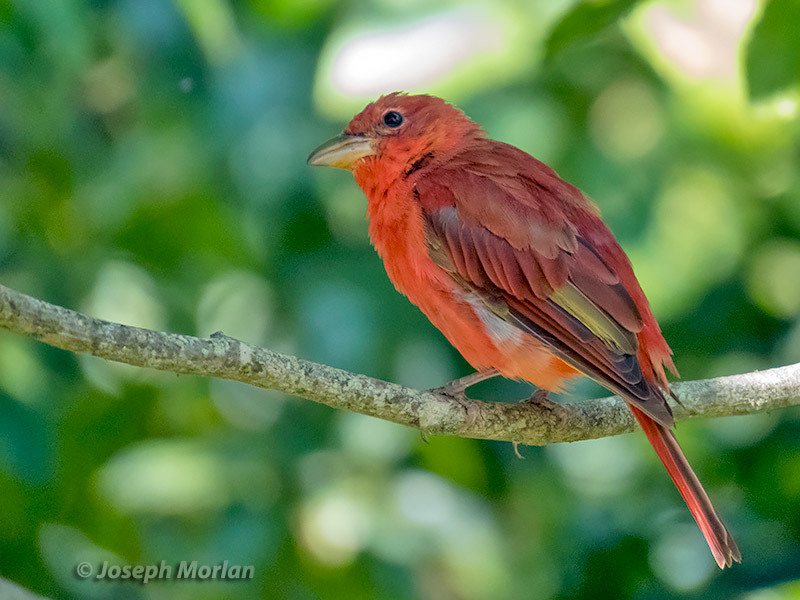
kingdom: Animalia
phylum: Chordata
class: Aves
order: Passeriformes
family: Cardinalidae
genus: Piranga
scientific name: Piranga rubra
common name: Summer tanager
